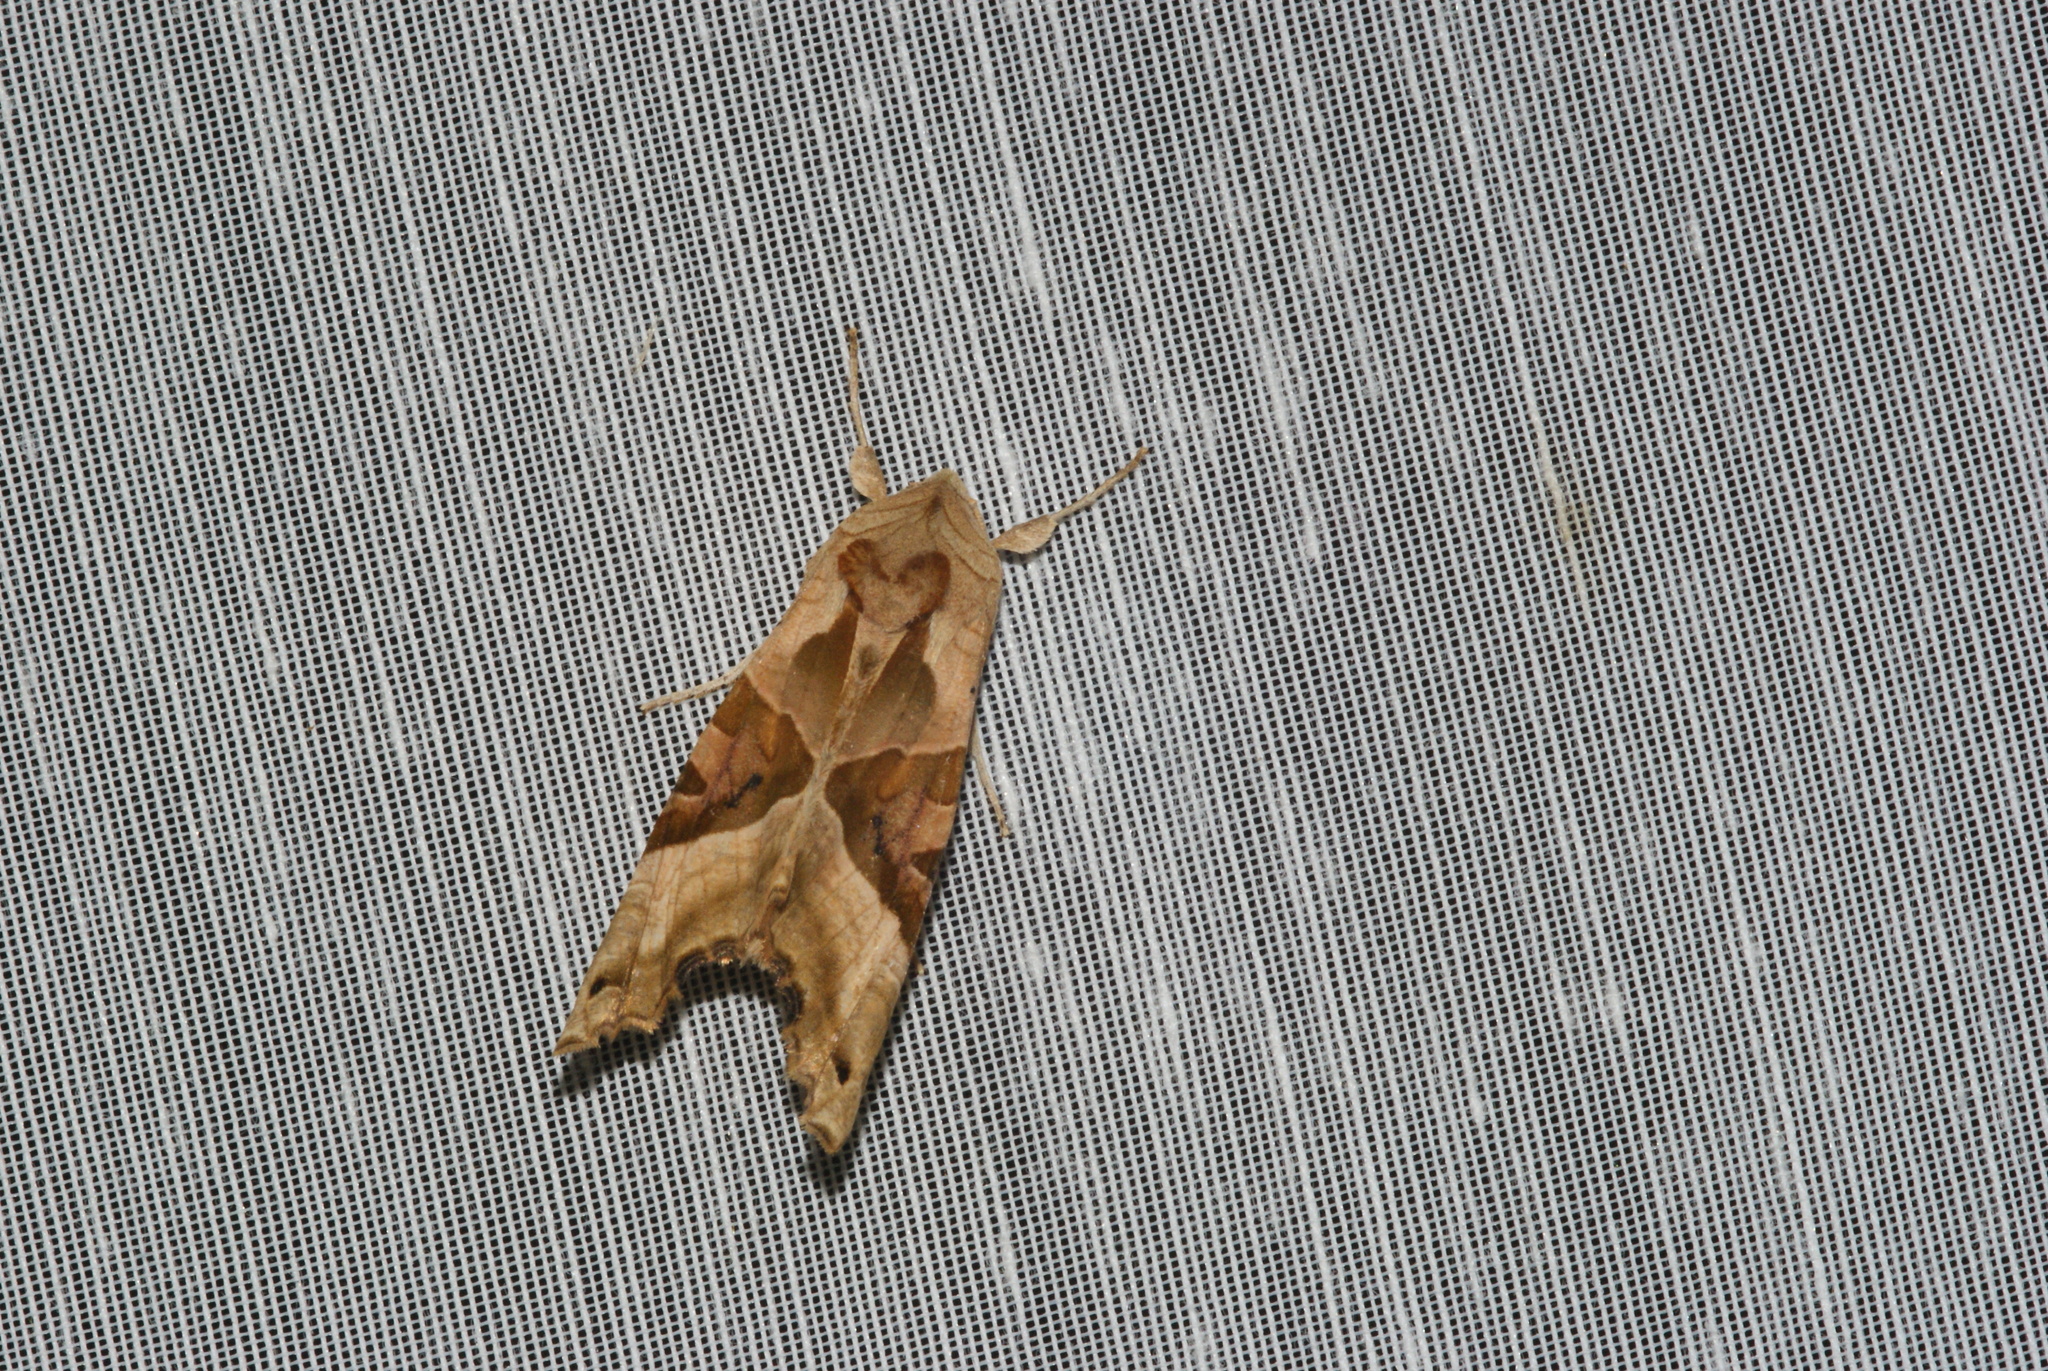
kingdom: Animalia
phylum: Arthropoda
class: Insecta
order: Lepidoptera
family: Noctuidae
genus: Phlogophora
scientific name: Phlogophora meticulosa
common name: Angle shades
